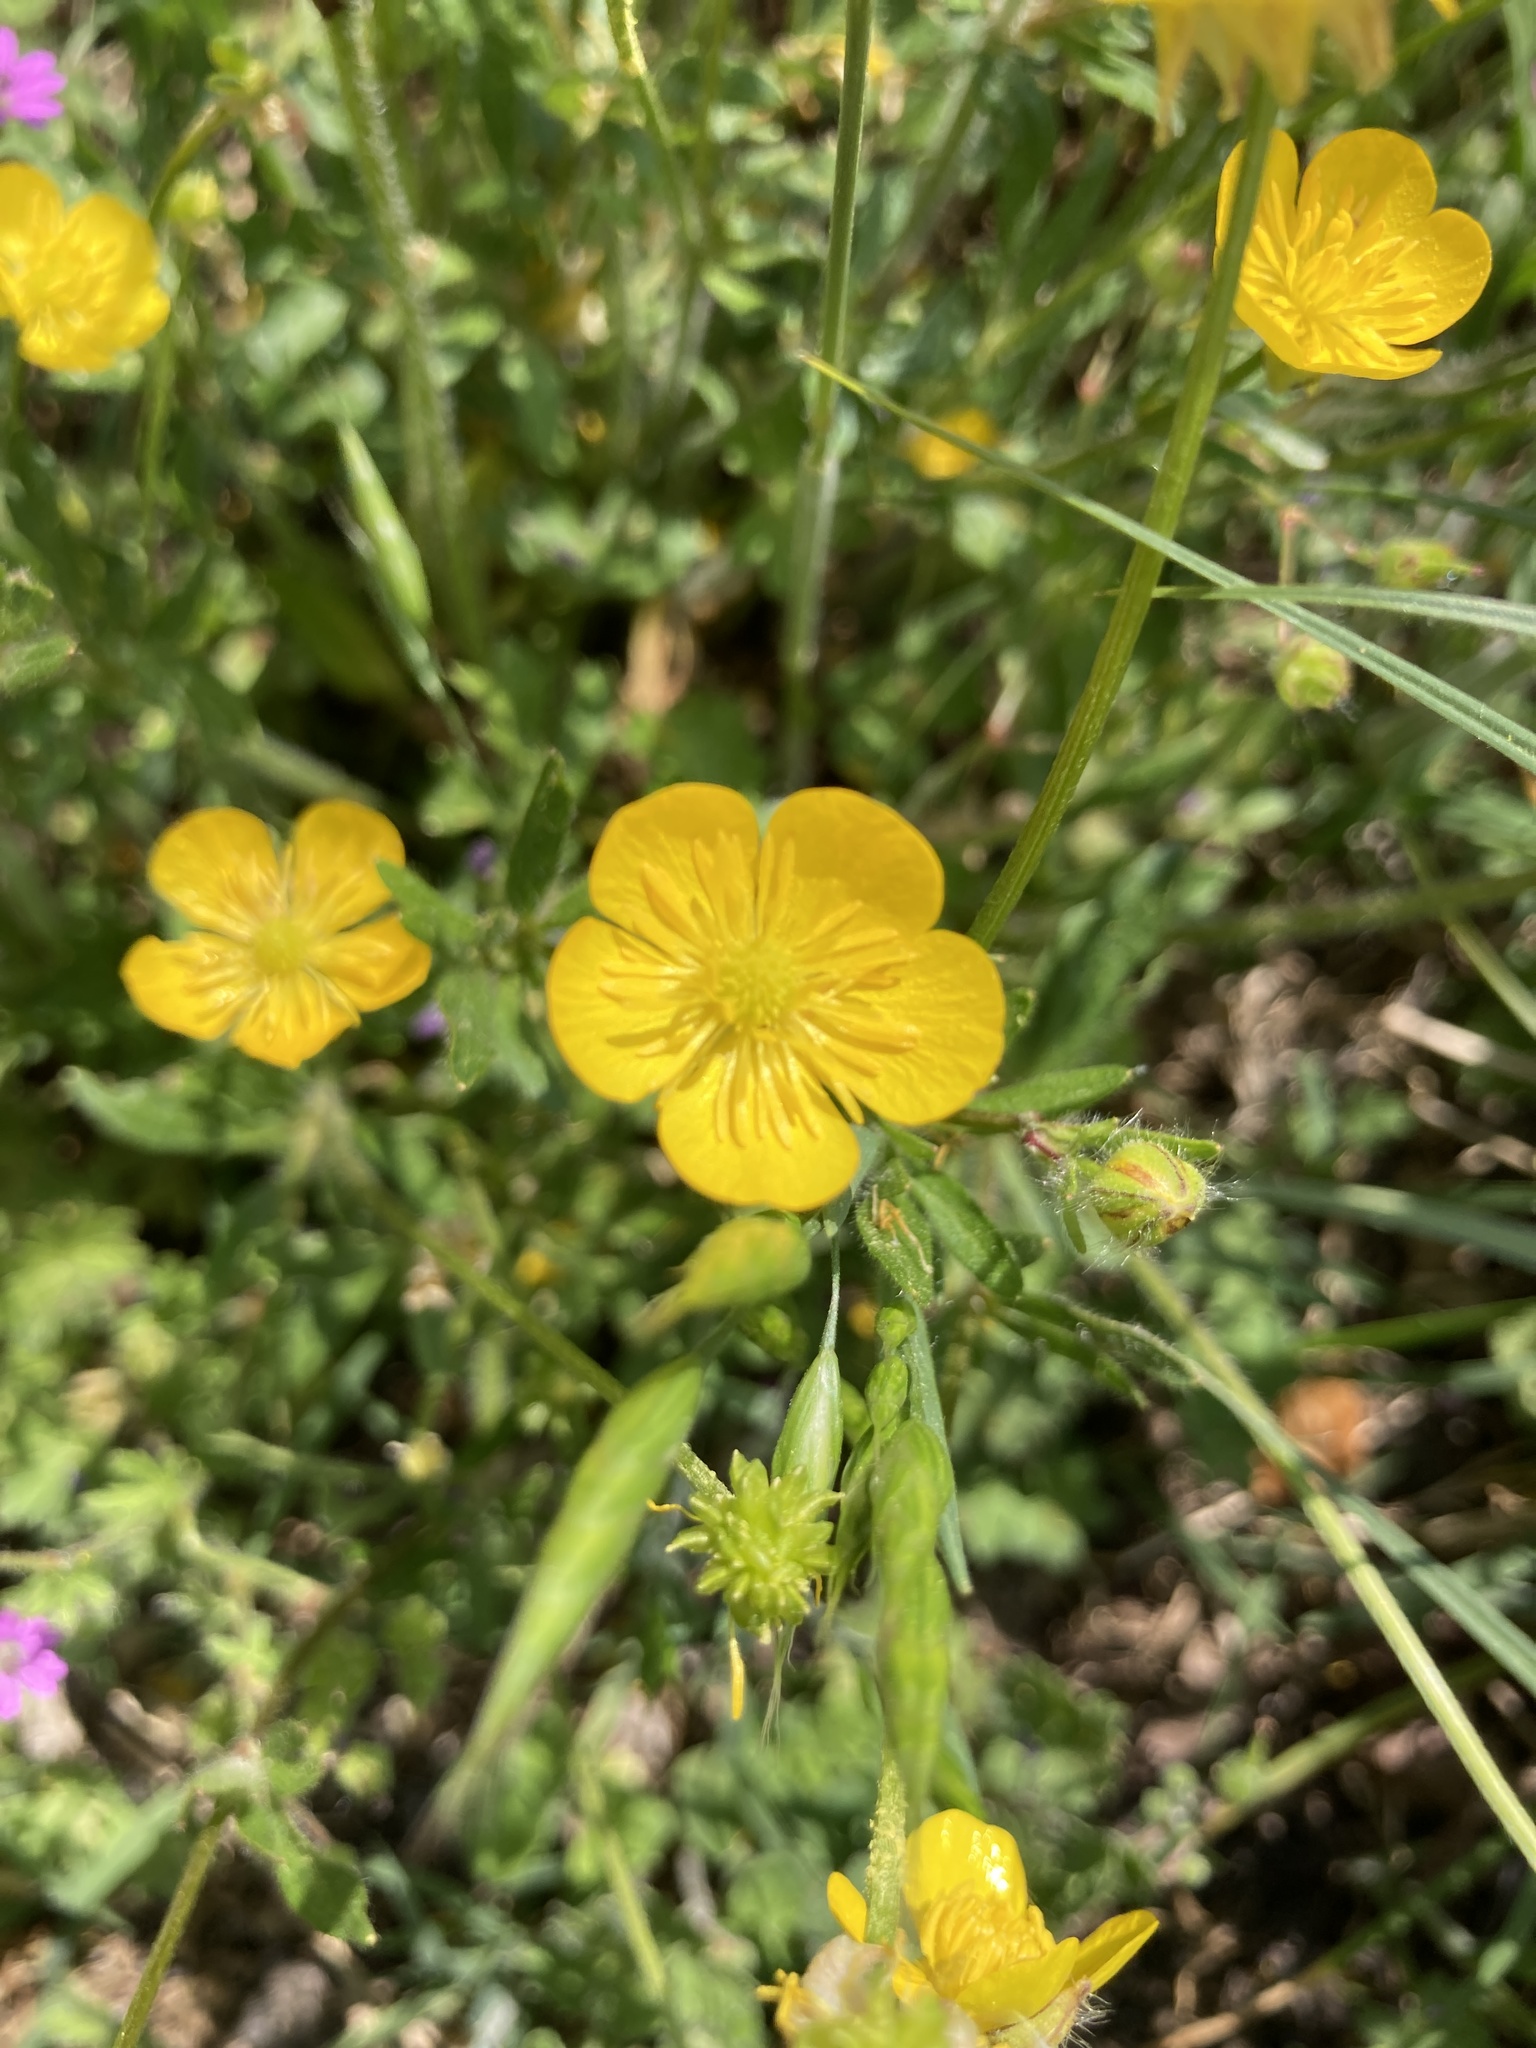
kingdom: Plantae
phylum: Tracheophyta
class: Magnoliopsida
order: Ranunculales
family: Ranunculaceae
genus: Ranunculus
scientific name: Ranunculus bulbosus
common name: Bulbous buttercup
